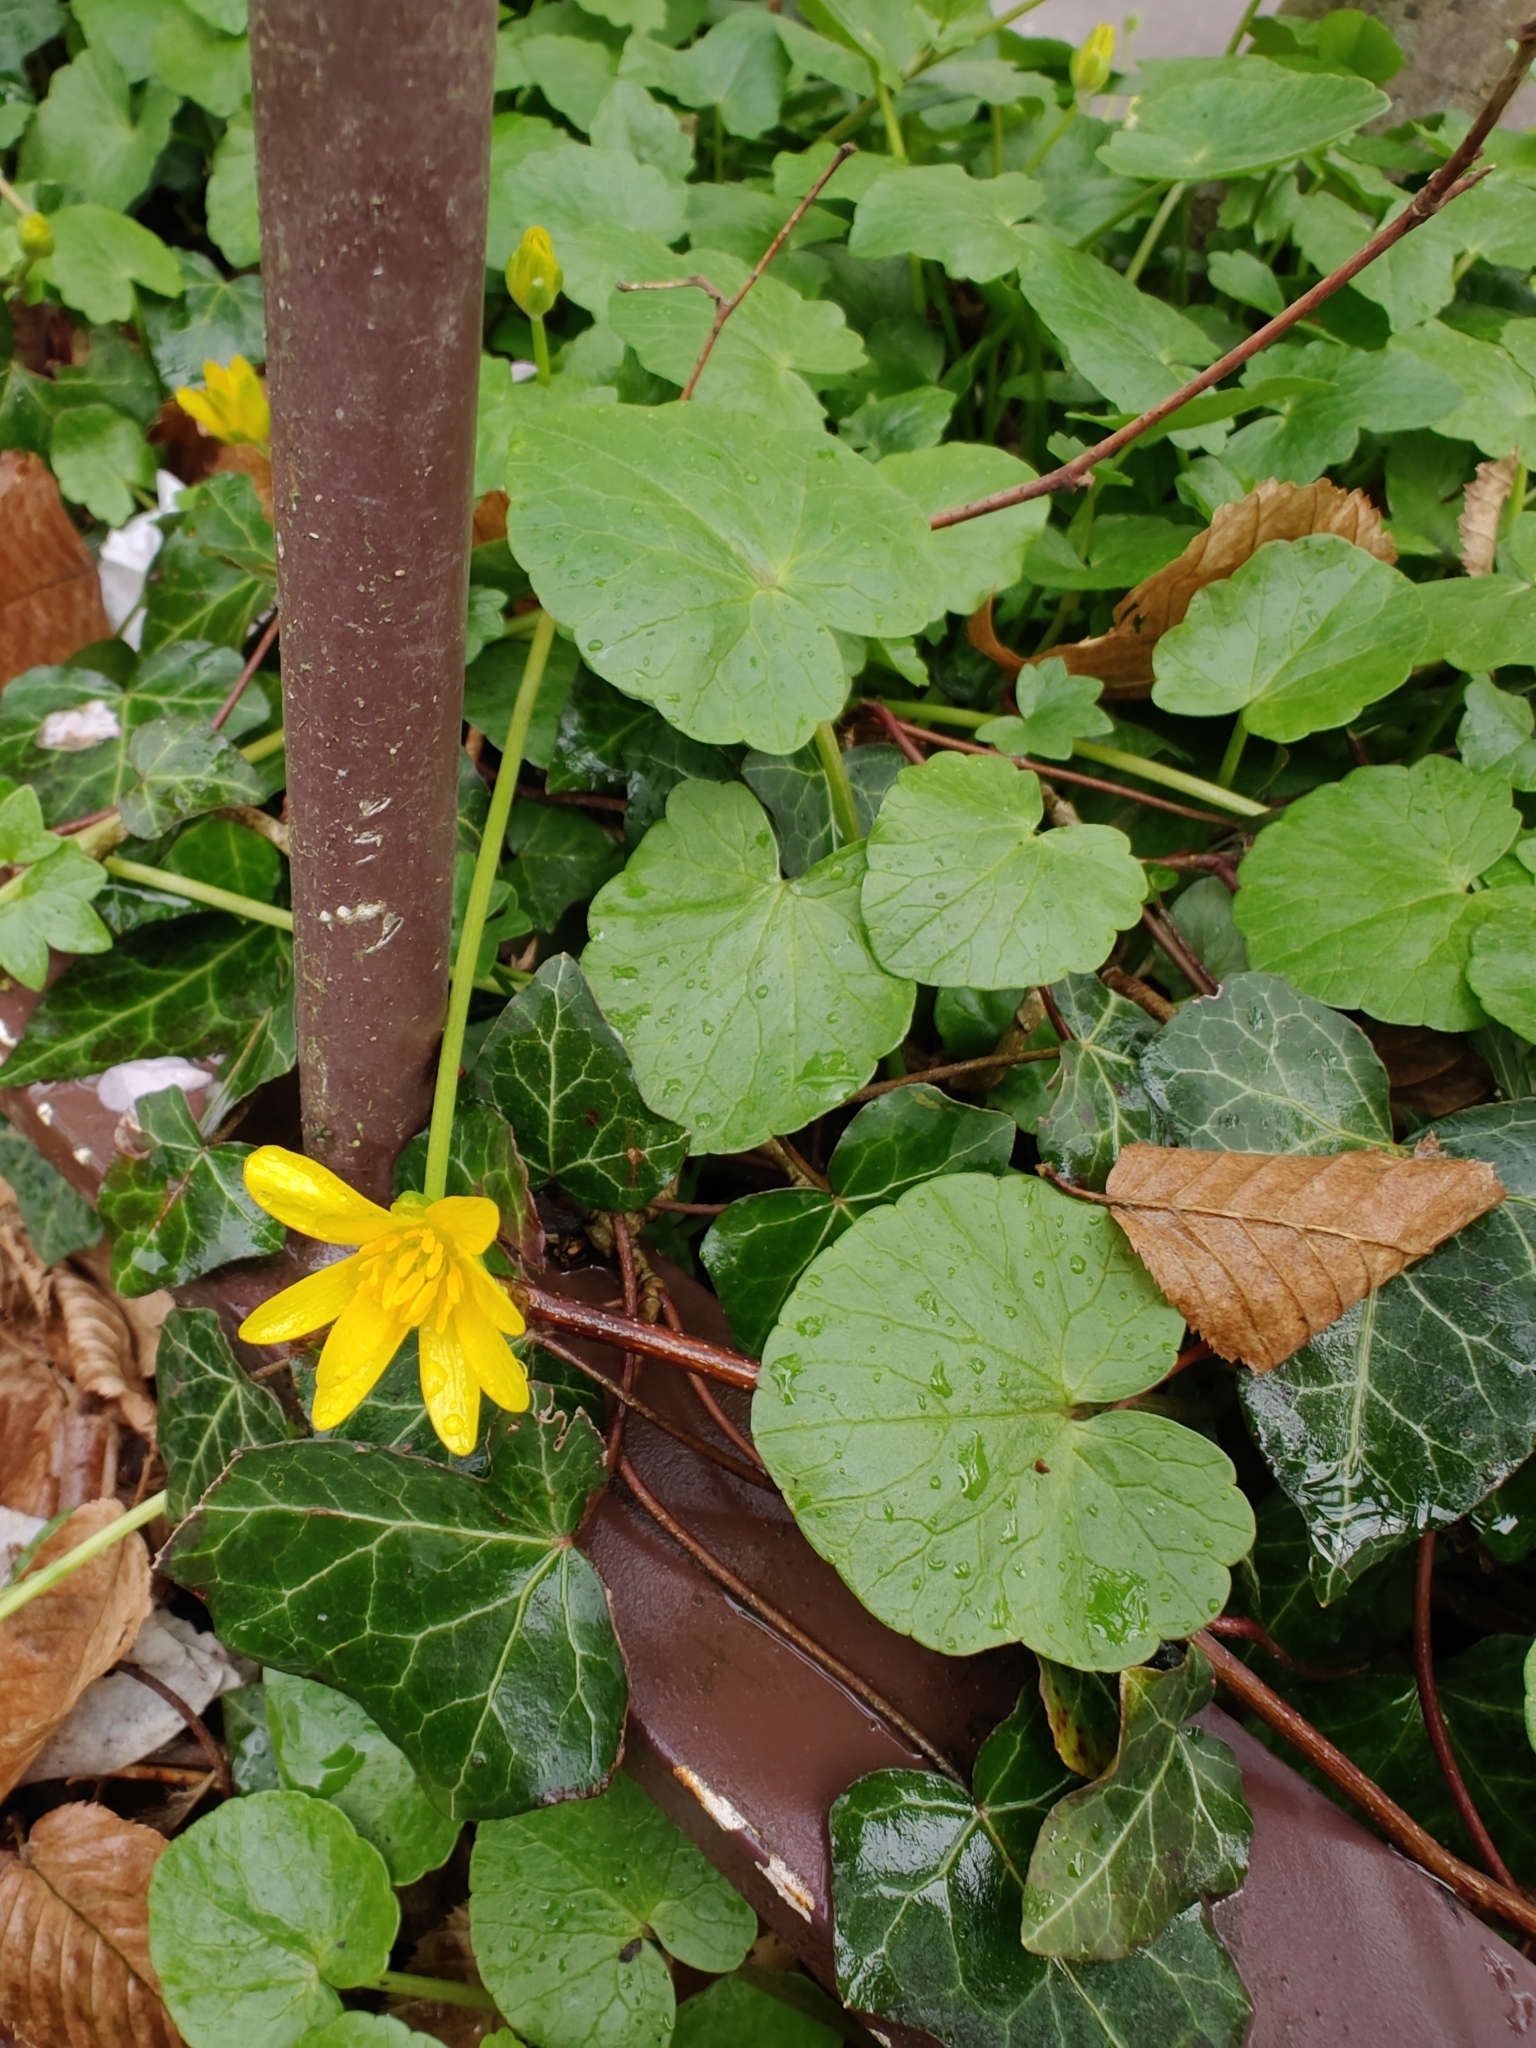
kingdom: Plantae
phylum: Tracheophyta
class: Magnoliopsida
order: Ranunculales
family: Ranunculaceae
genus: Ficaria
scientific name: Ficaria verna
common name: Lesser celandine
